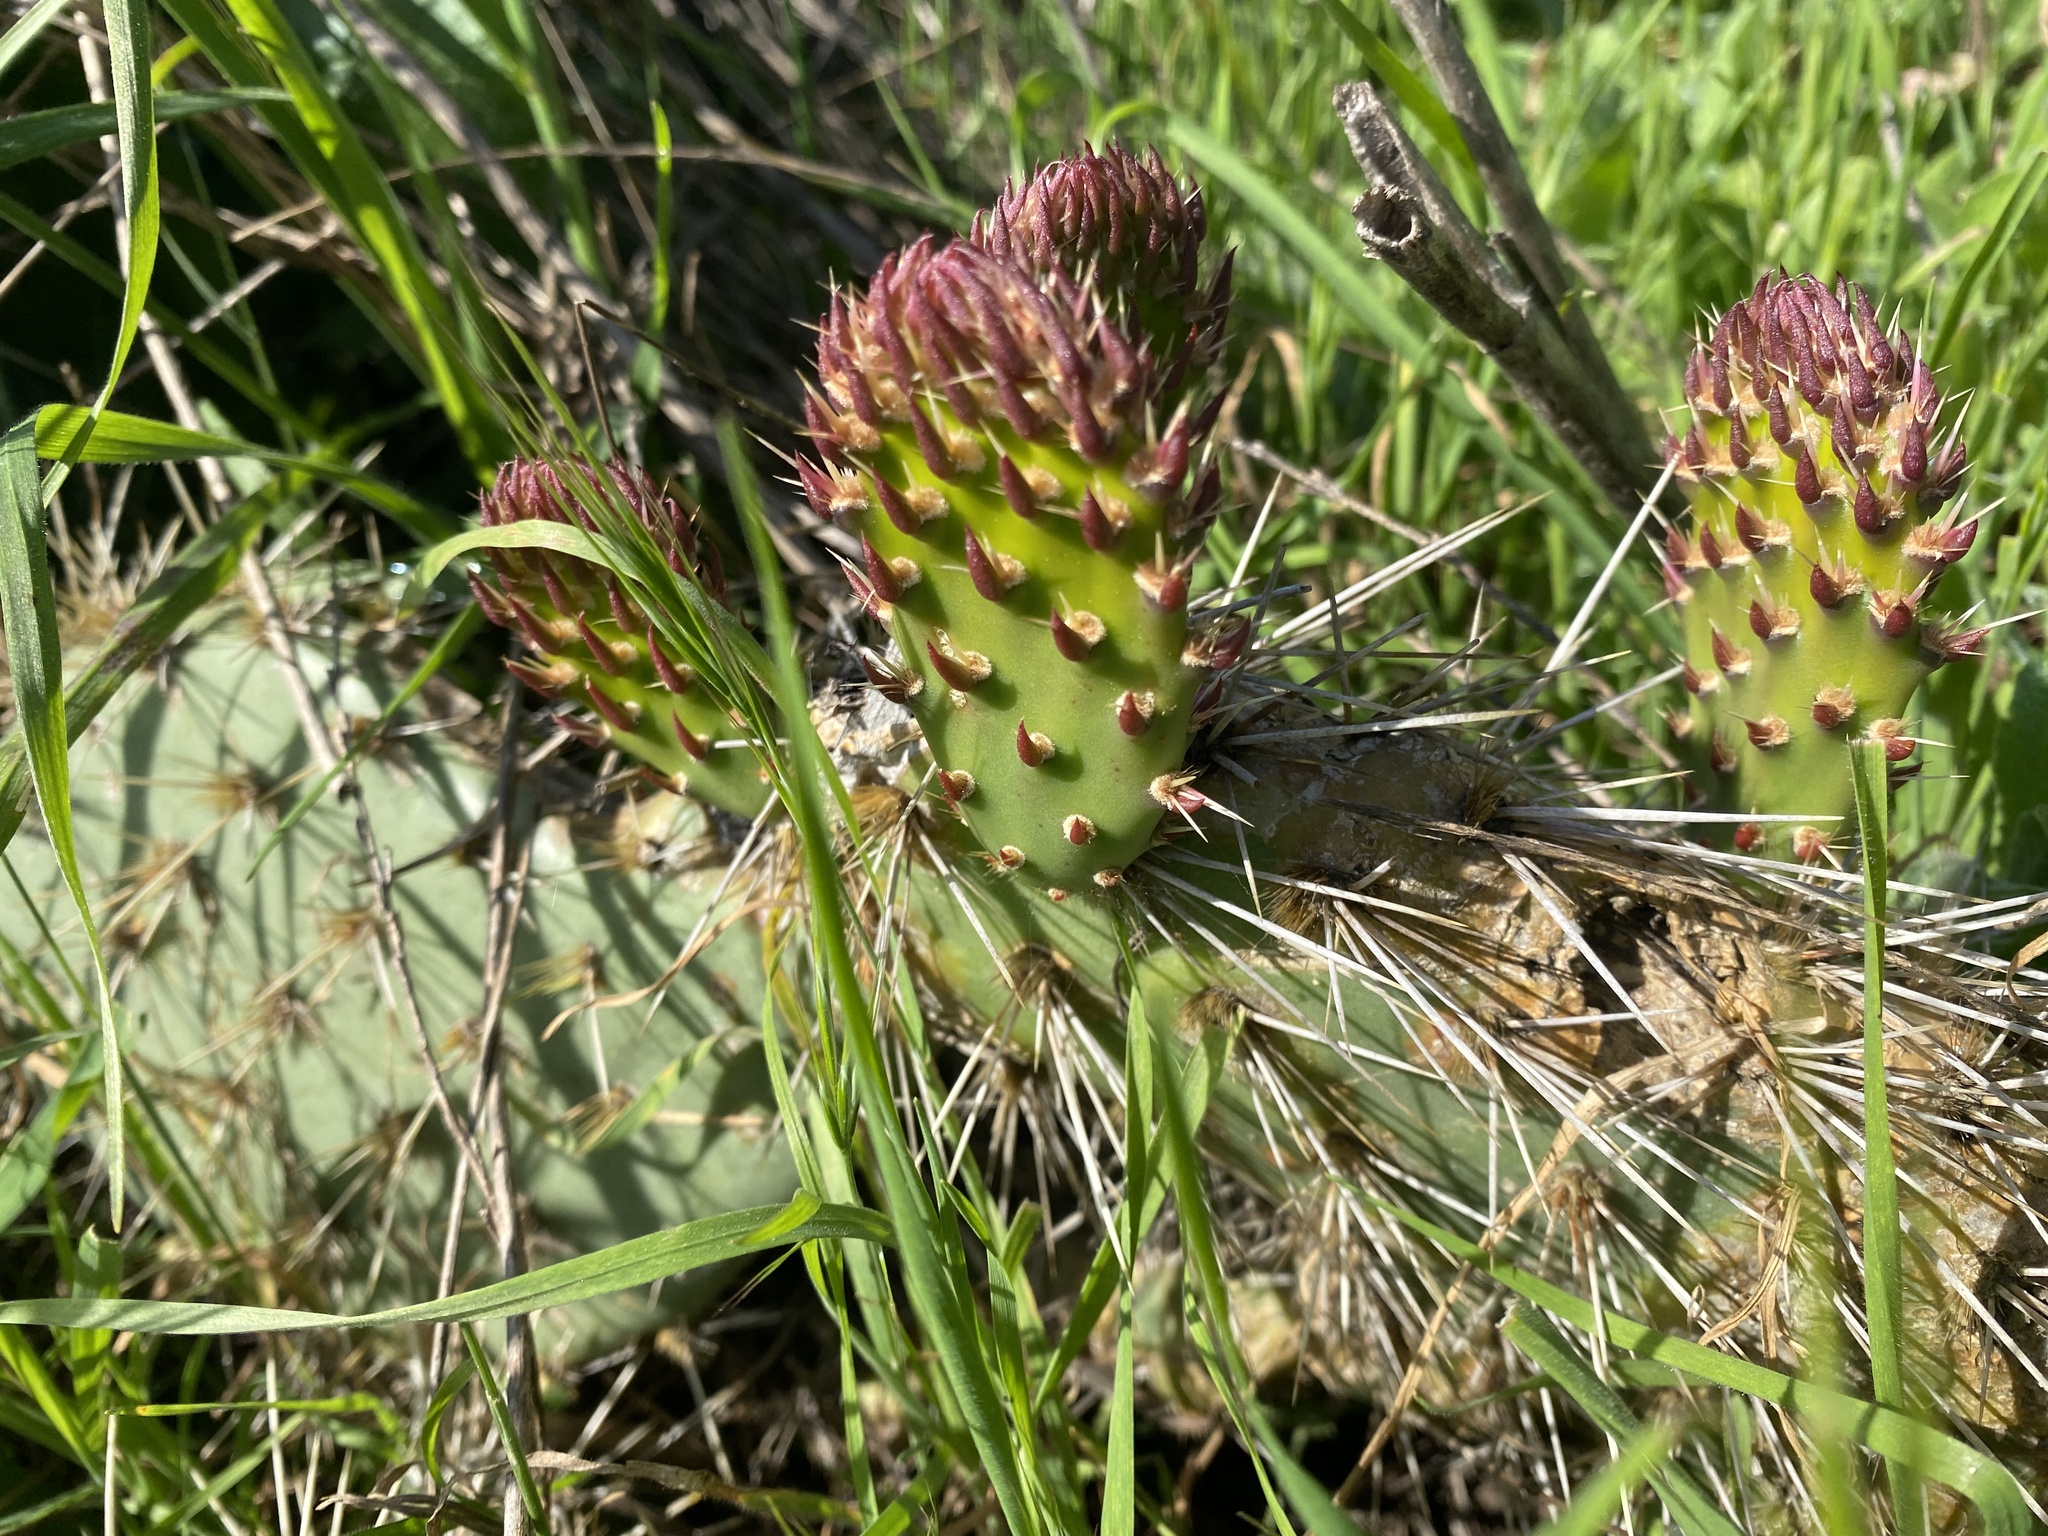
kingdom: Plantae
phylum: Tracheophyta
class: Magnoliopsida
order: Caryophyllales
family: Cactaceae
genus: Opuntia
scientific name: Opuntia littoralis
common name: Coastal prickly-pear
